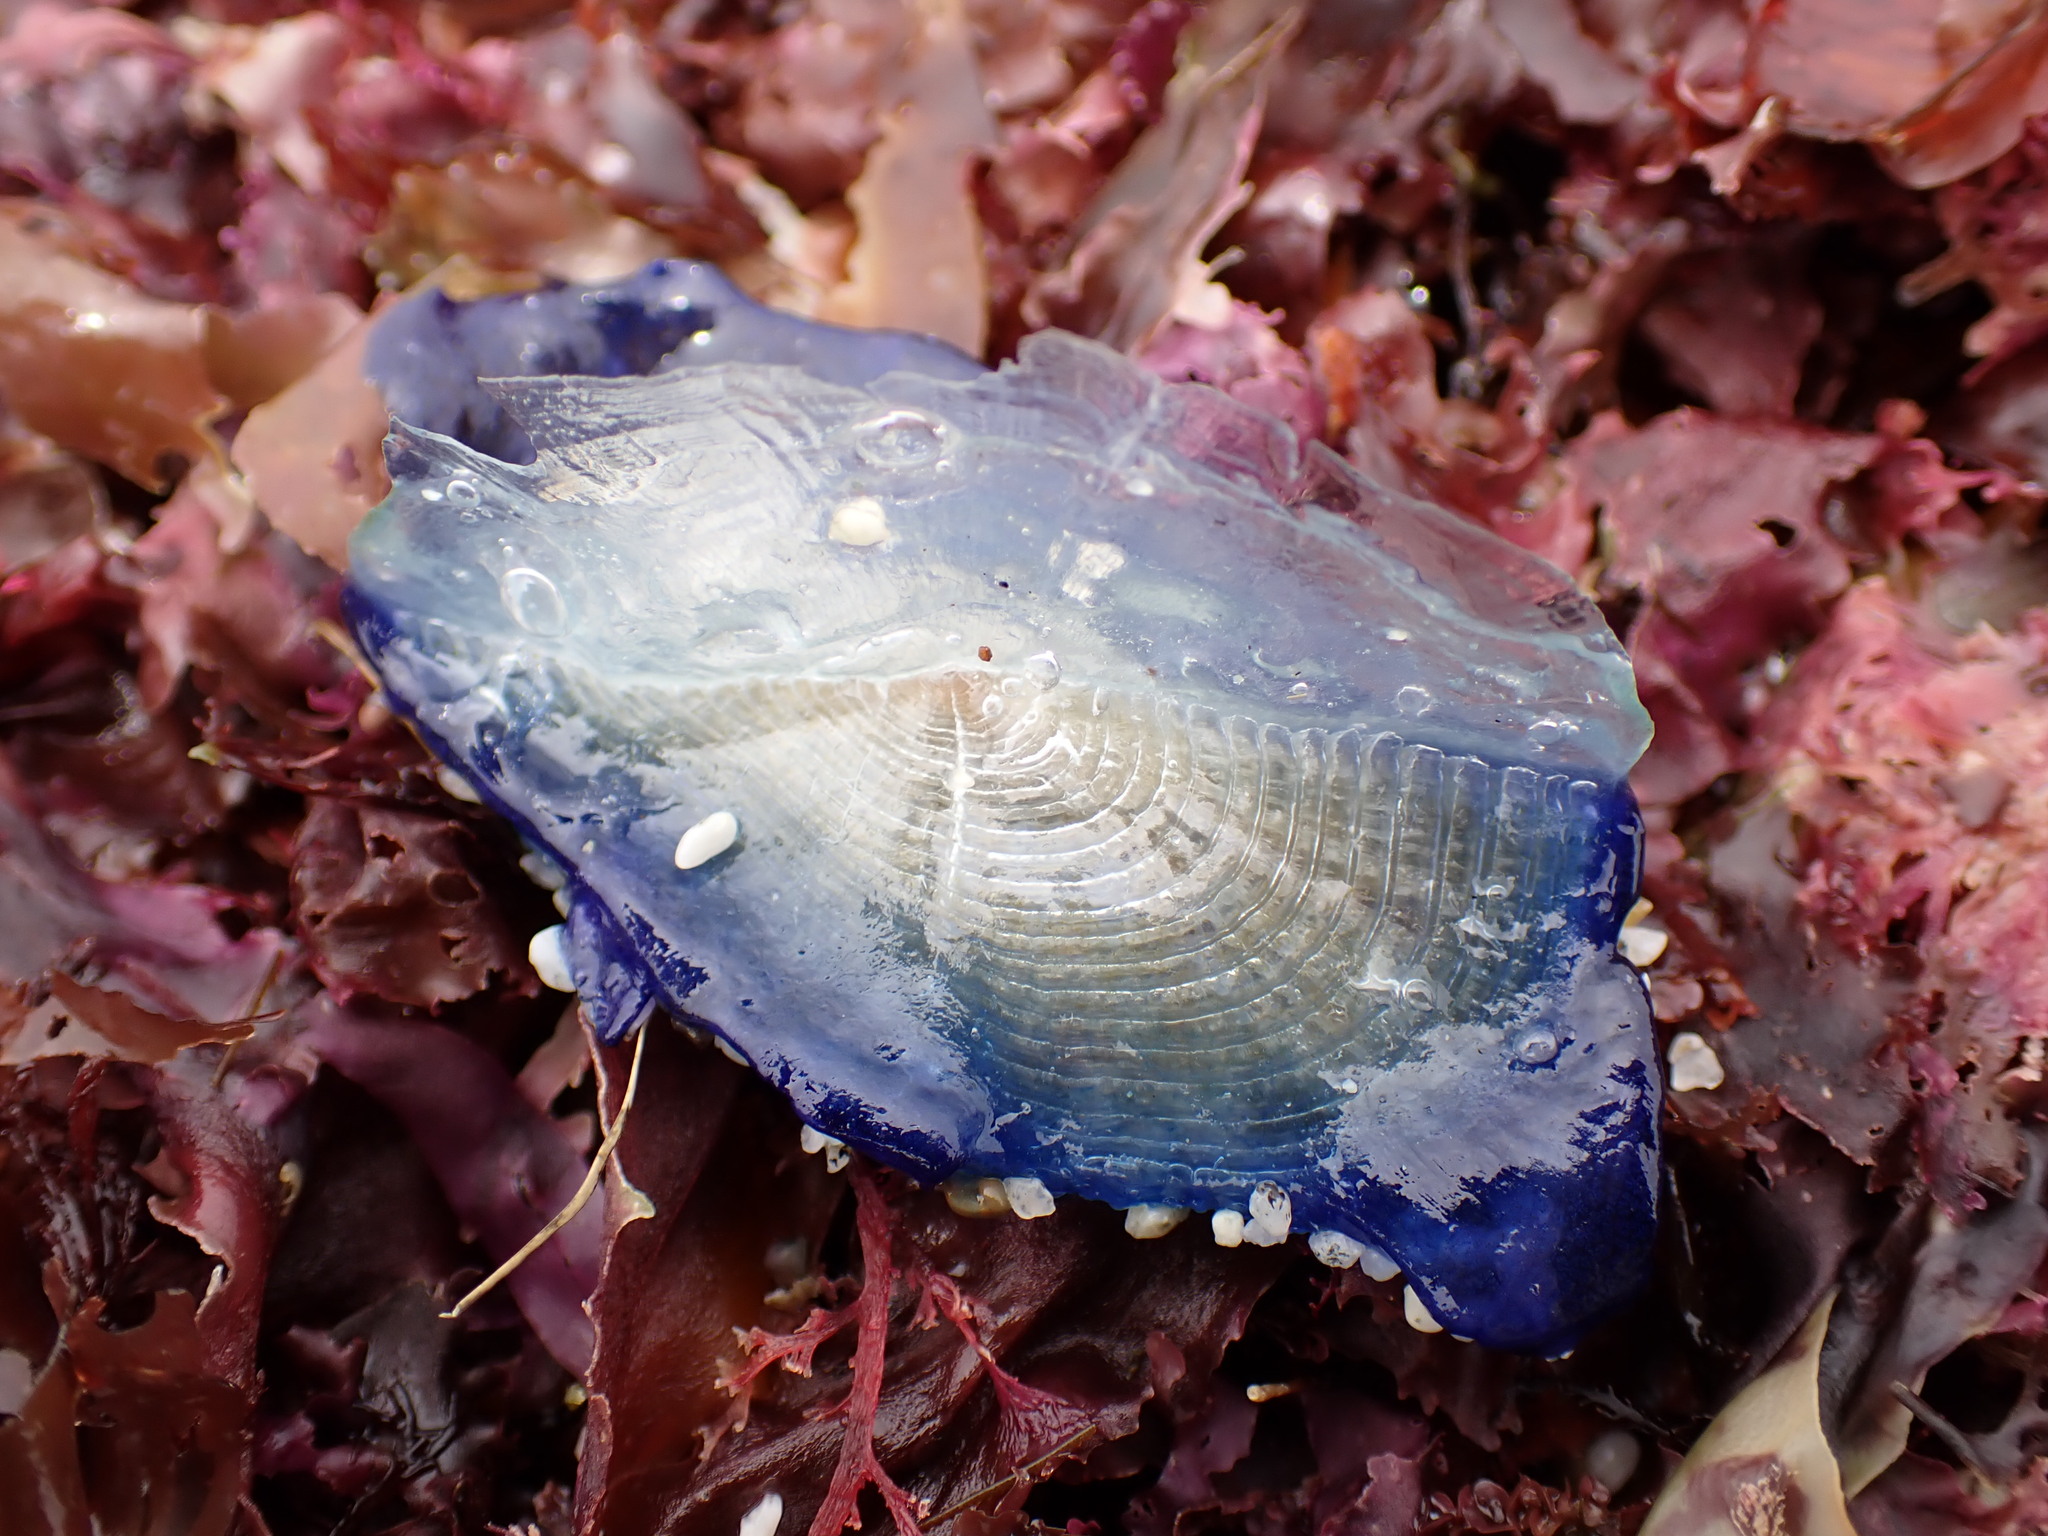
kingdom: Animalia
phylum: Cnidaria
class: Hydrozoa
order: Anthoathecata
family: Porpitidae
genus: Velella
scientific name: Velella velella
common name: By-the-wind-sailor
